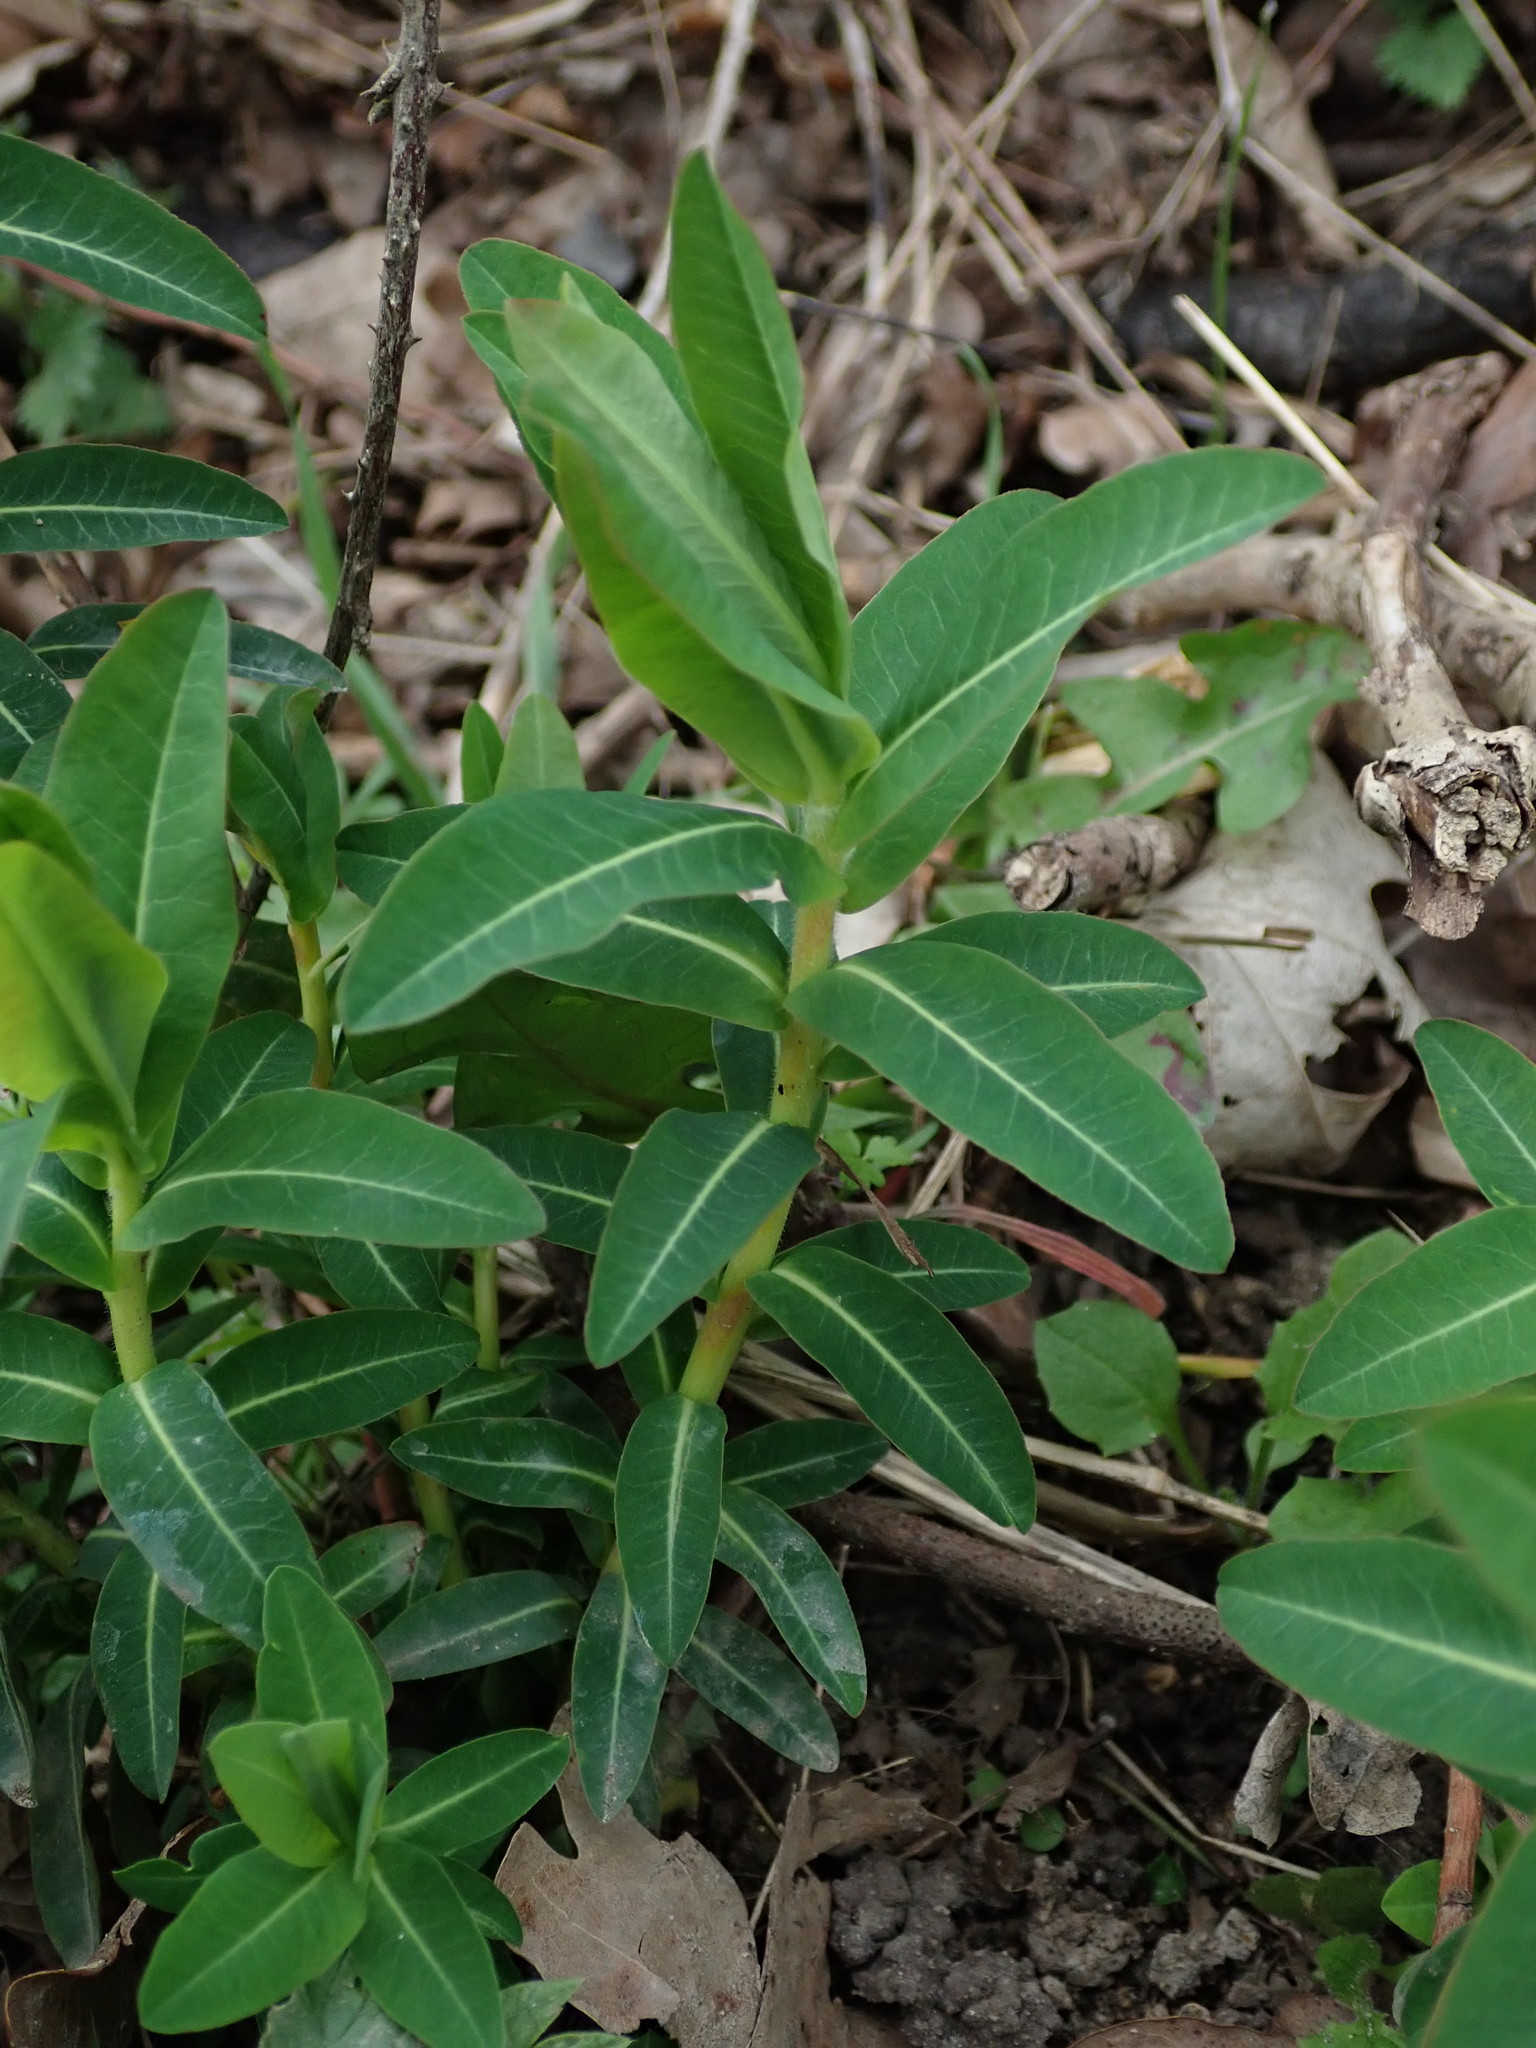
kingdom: Plantae
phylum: Tracheophyta
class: Magnoliopsida
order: Malpighiales
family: Euphorbiaceae
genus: Euphorbia
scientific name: Euphorbia oblongata
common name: Balkan spurge
